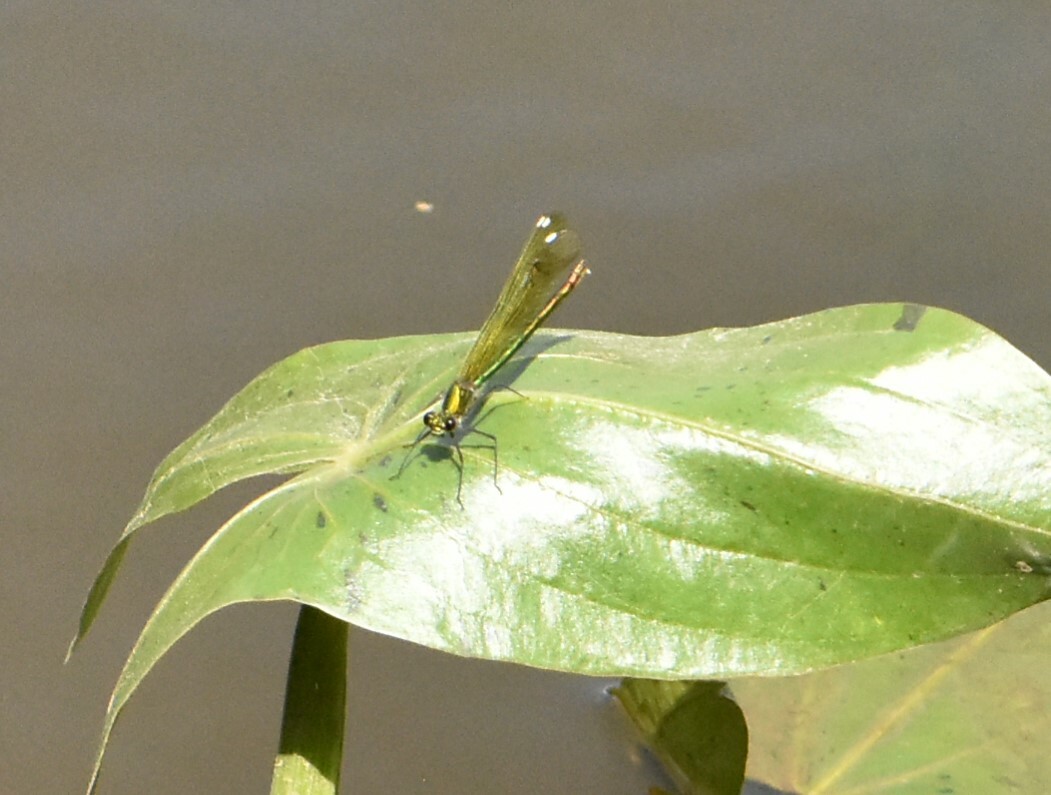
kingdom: Animalia
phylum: Arthropoda
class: Insecta
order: Odonata
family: Calopterygidae
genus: Calopteryx
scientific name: Calopteryx splendens
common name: Banded demoiselle
